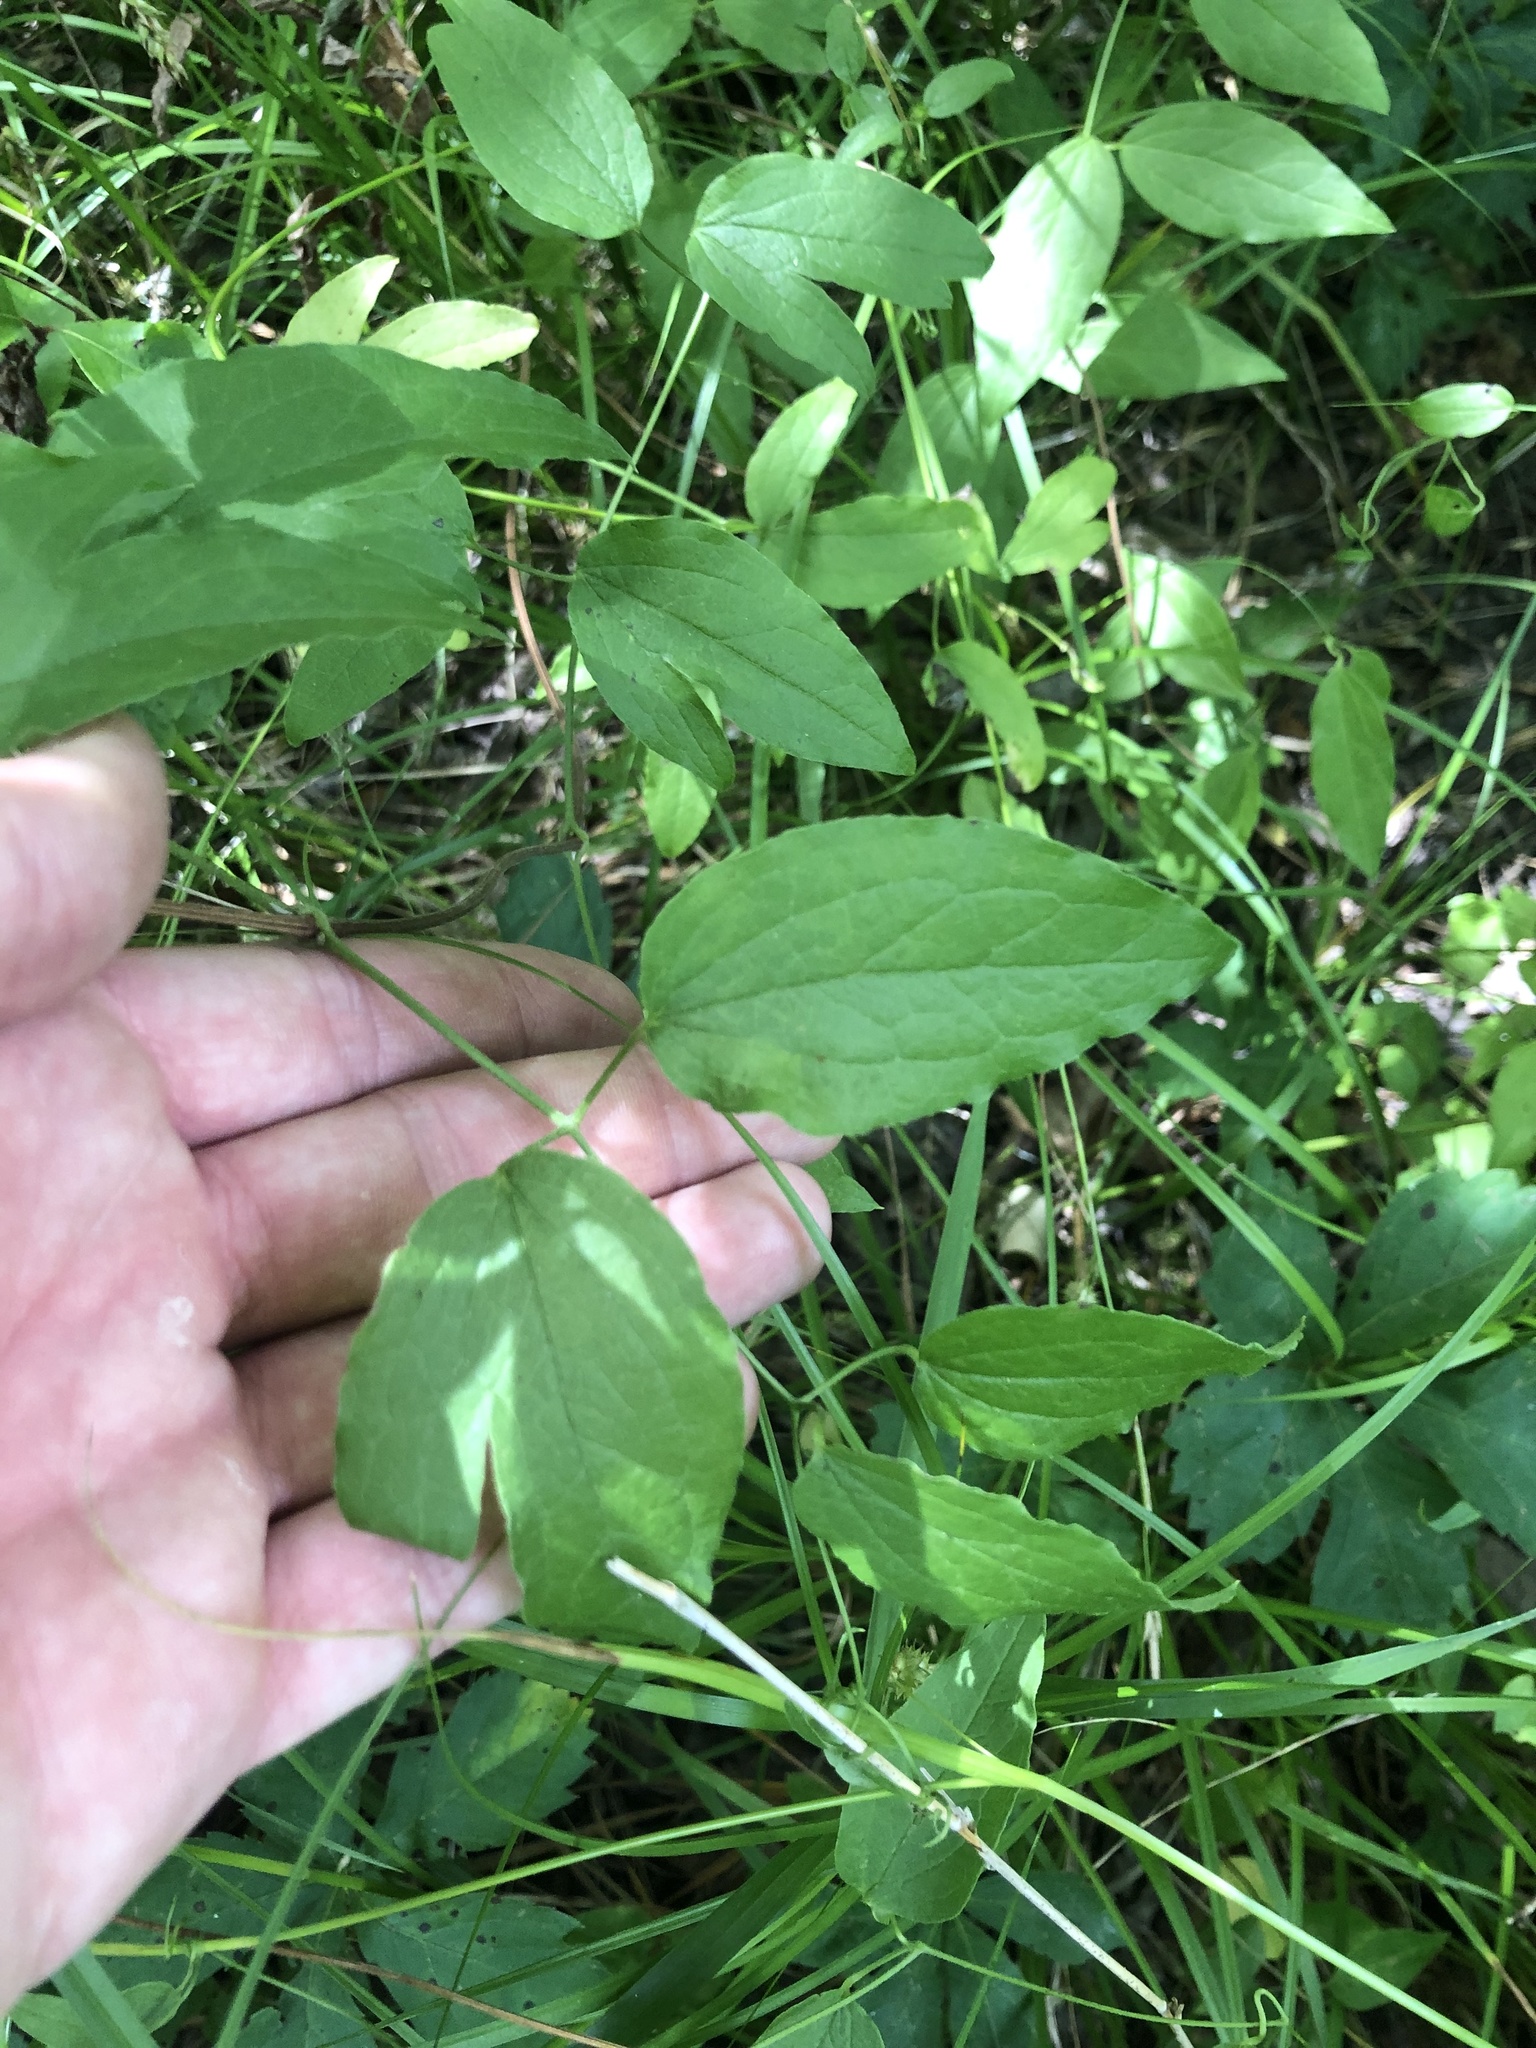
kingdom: Plantae
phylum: Tracheophyta
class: Magnoliopsida
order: Ranunculales
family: Ranunculaceae
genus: Clematis
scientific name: Clematis pitcheri
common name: Bellflower clematis
